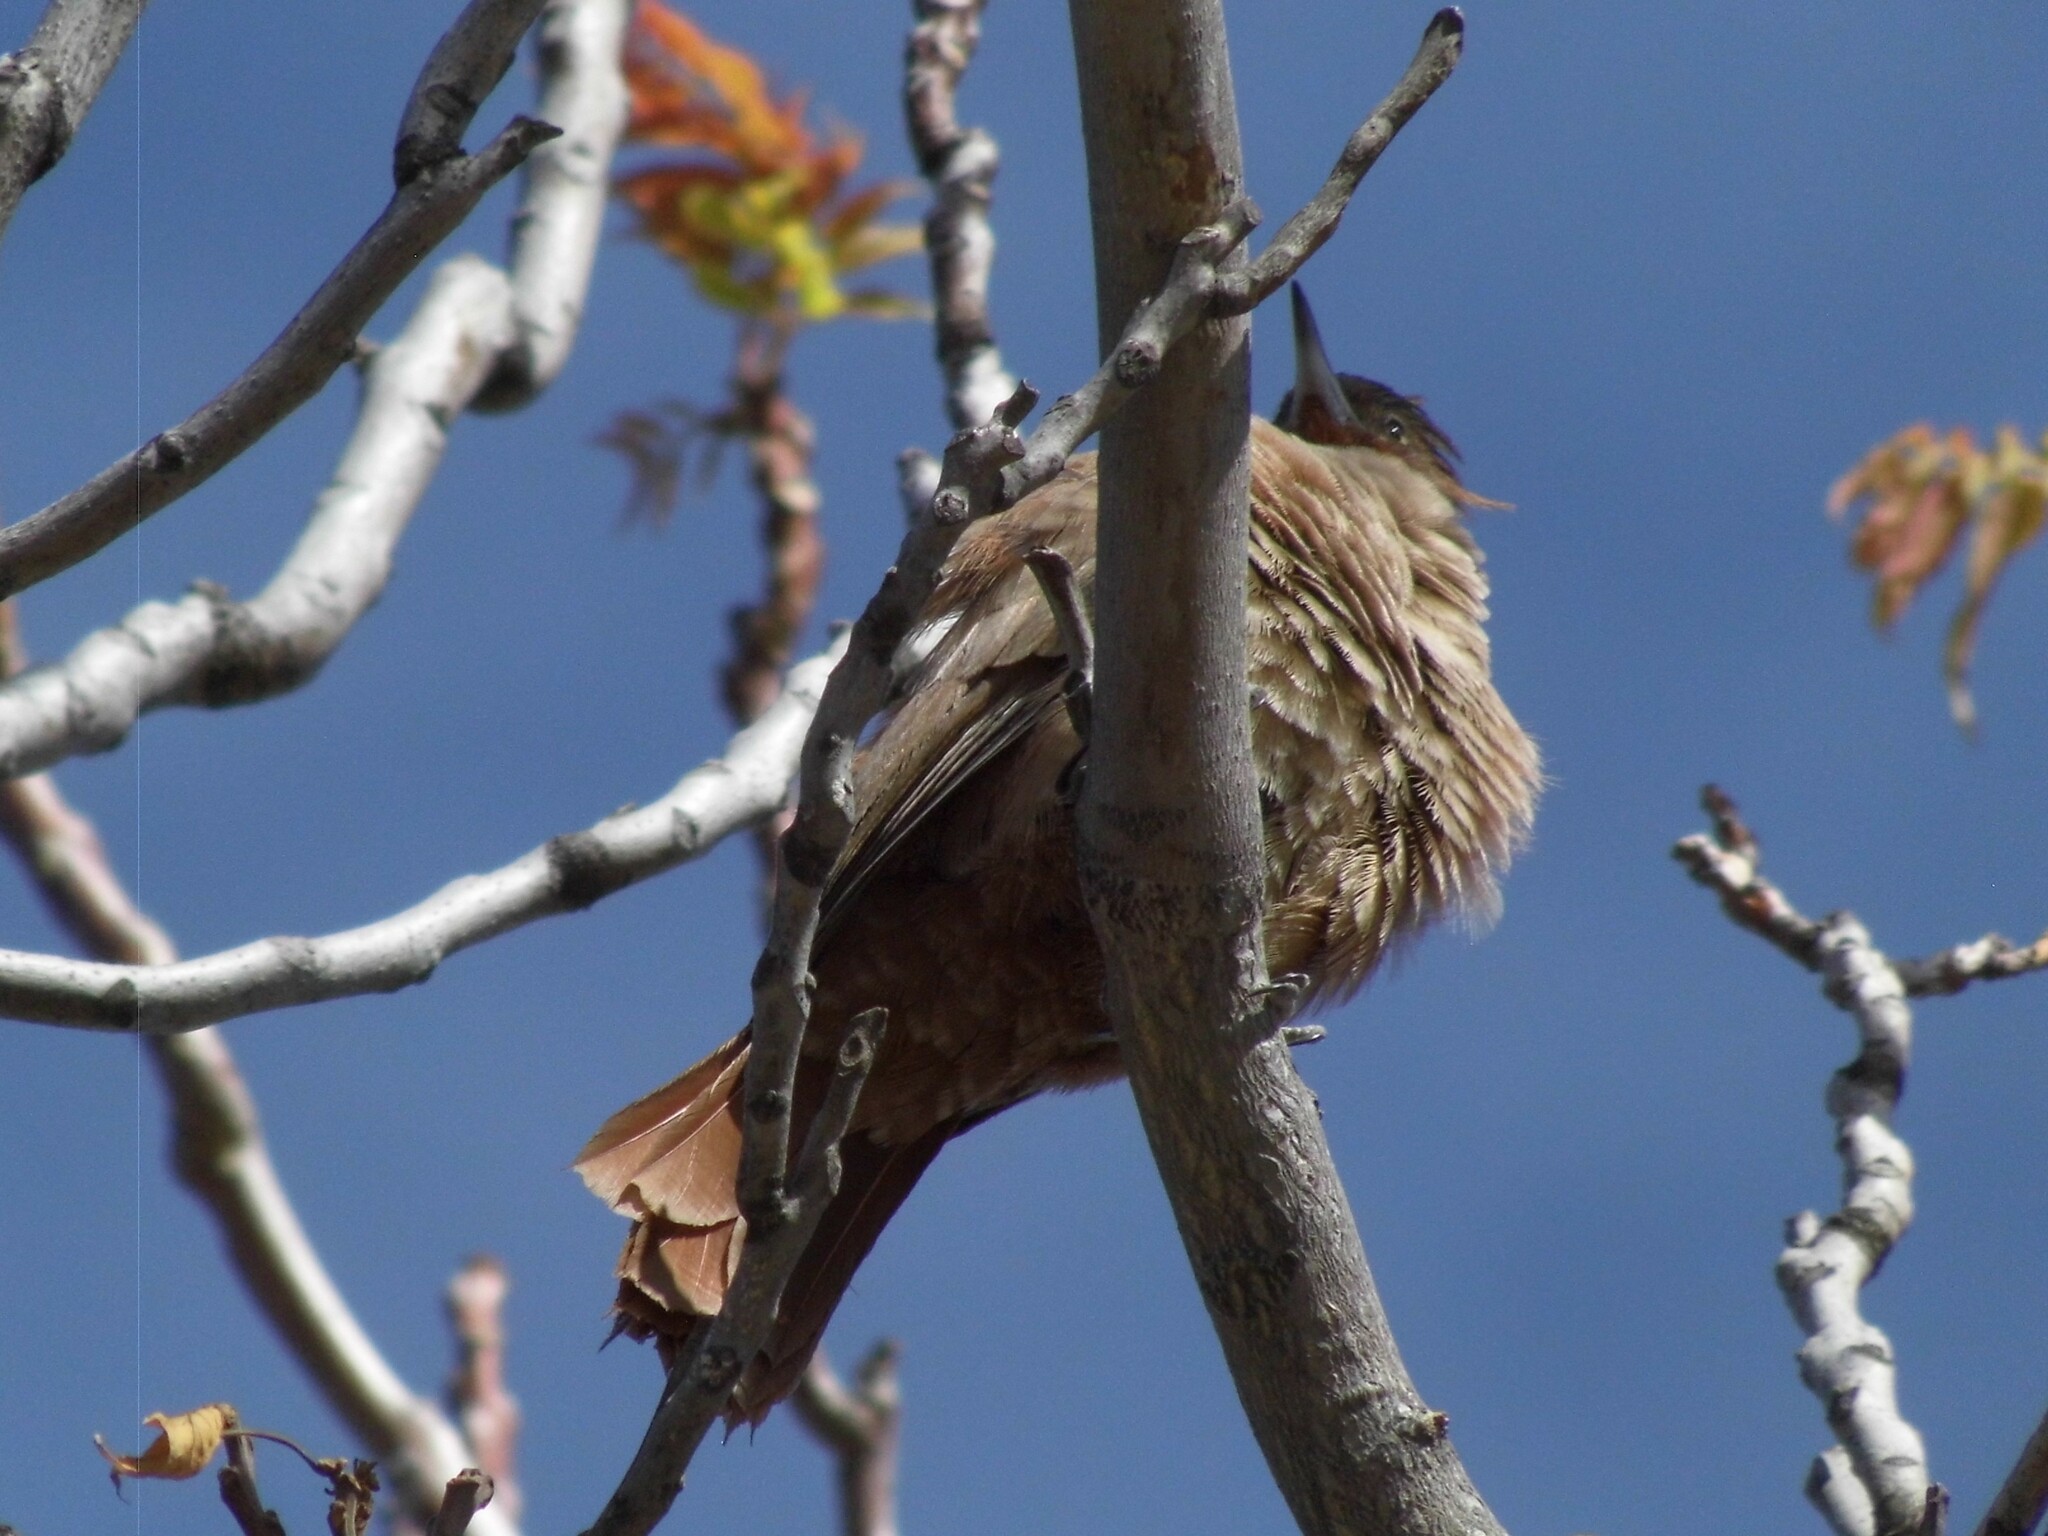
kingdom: Animalia
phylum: Chordata
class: Aves
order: Passeriformes
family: Furnariidae
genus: Pseudoseisura
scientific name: Pseudoseisura lophotes
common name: Brown cacholote
